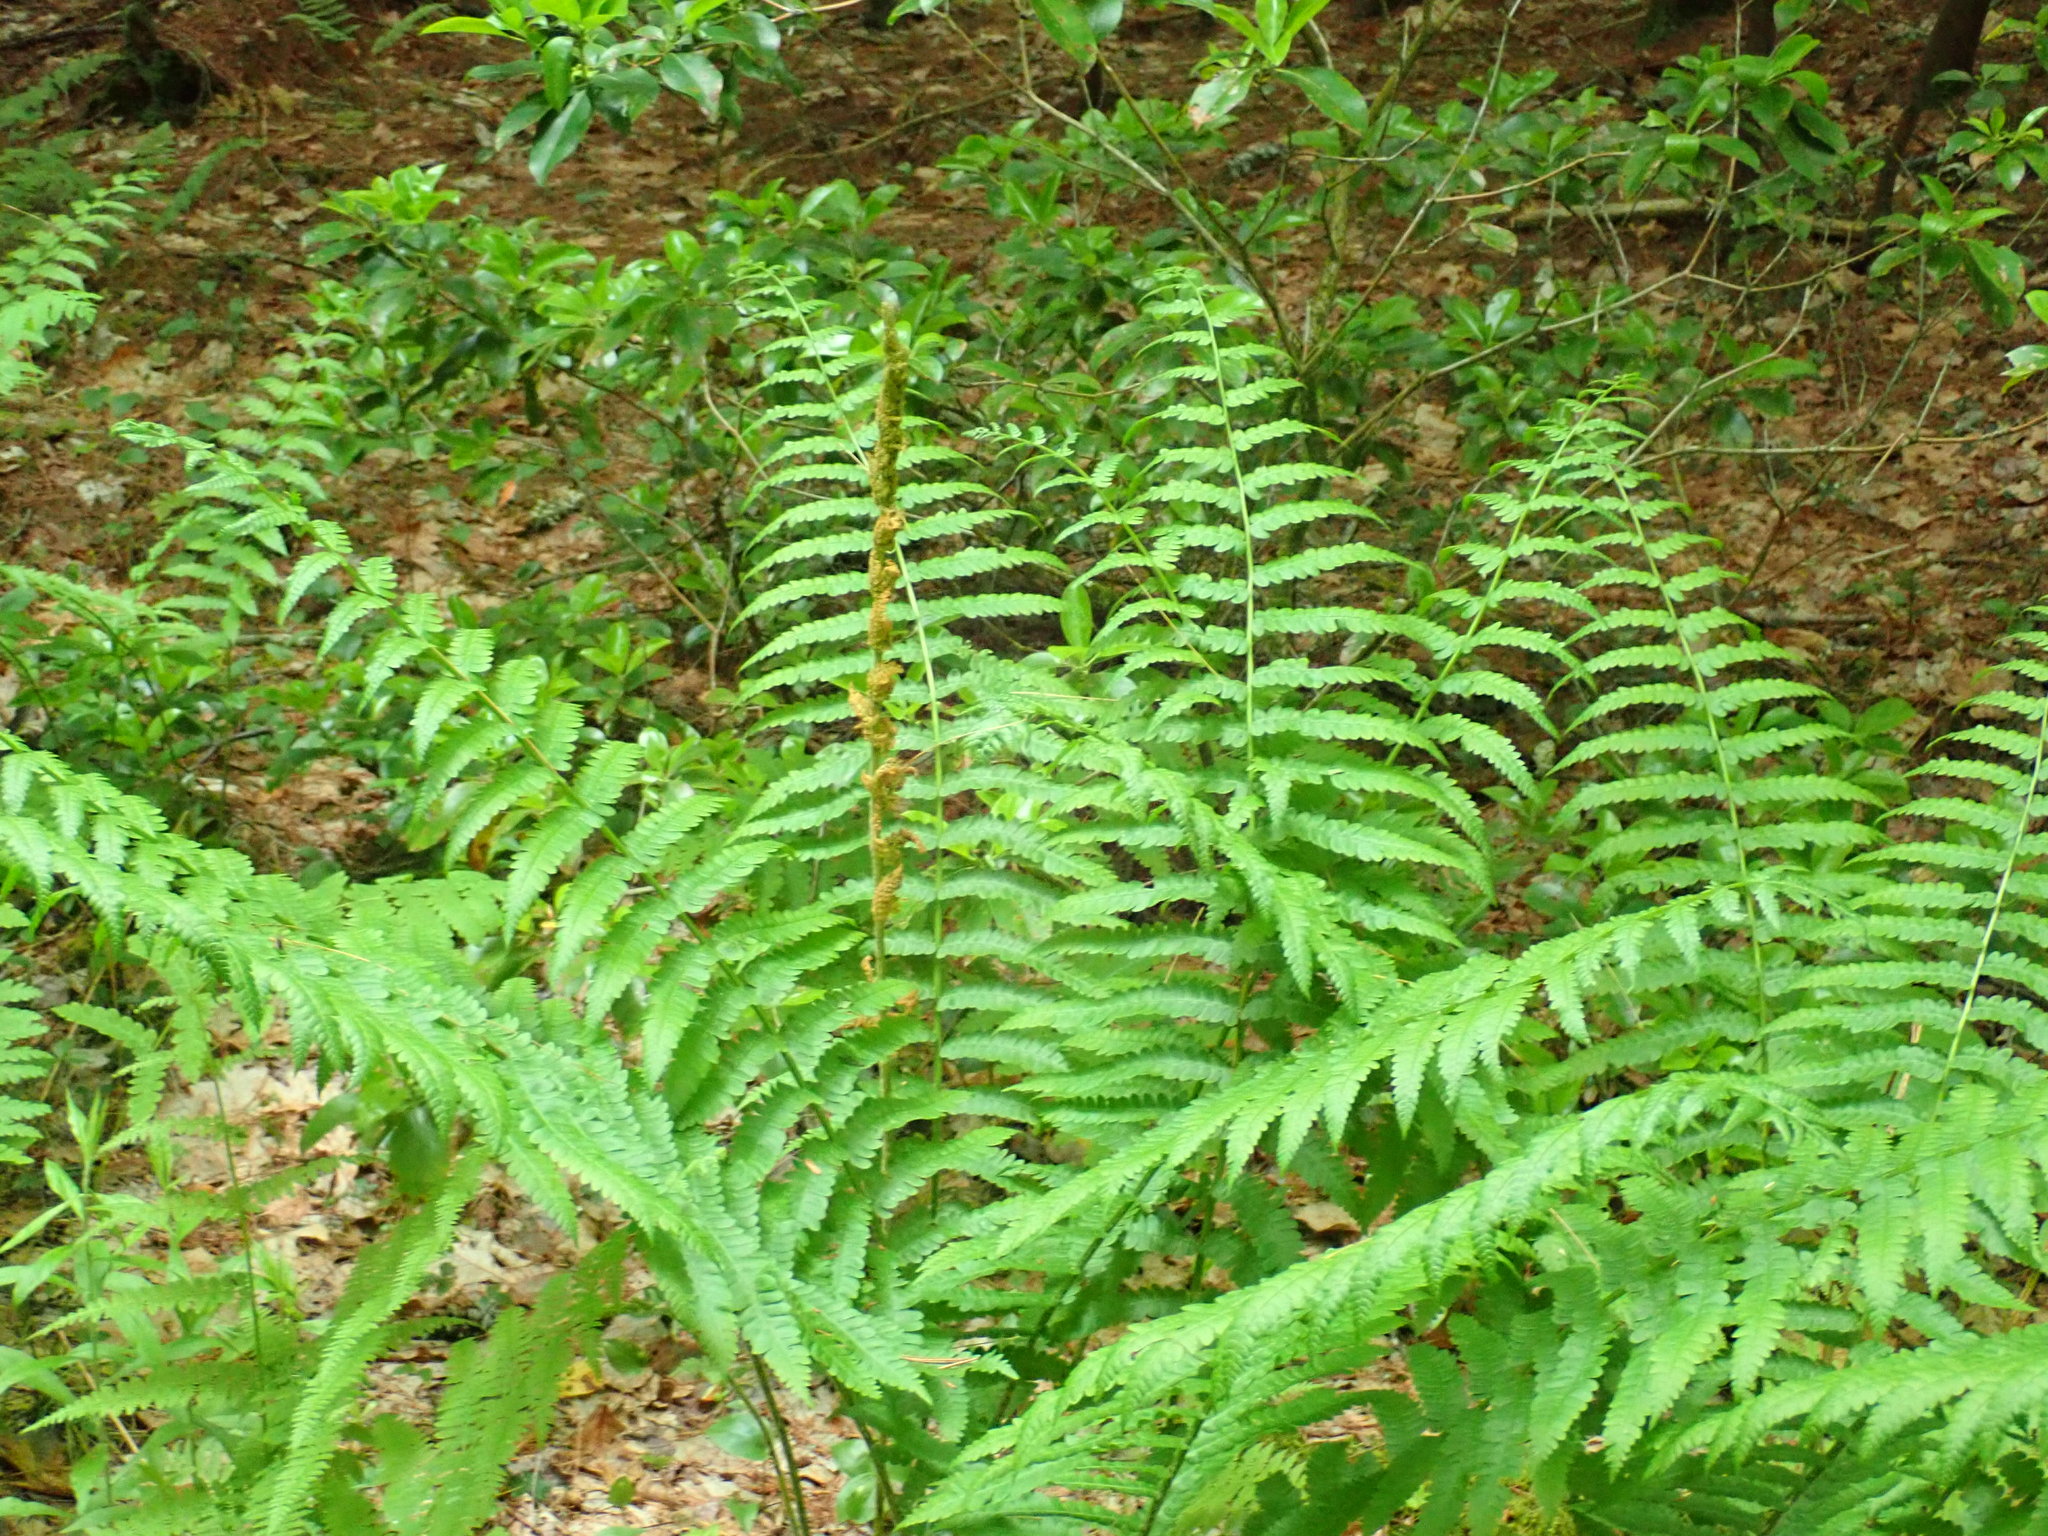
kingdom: Plantae
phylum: Tracheophyta
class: Polypodiopsida
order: Osmundales
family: Osmundaceae
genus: Osmundastrum
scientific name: Osmundastrum cinnamomeum
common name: Cinnamon fern
